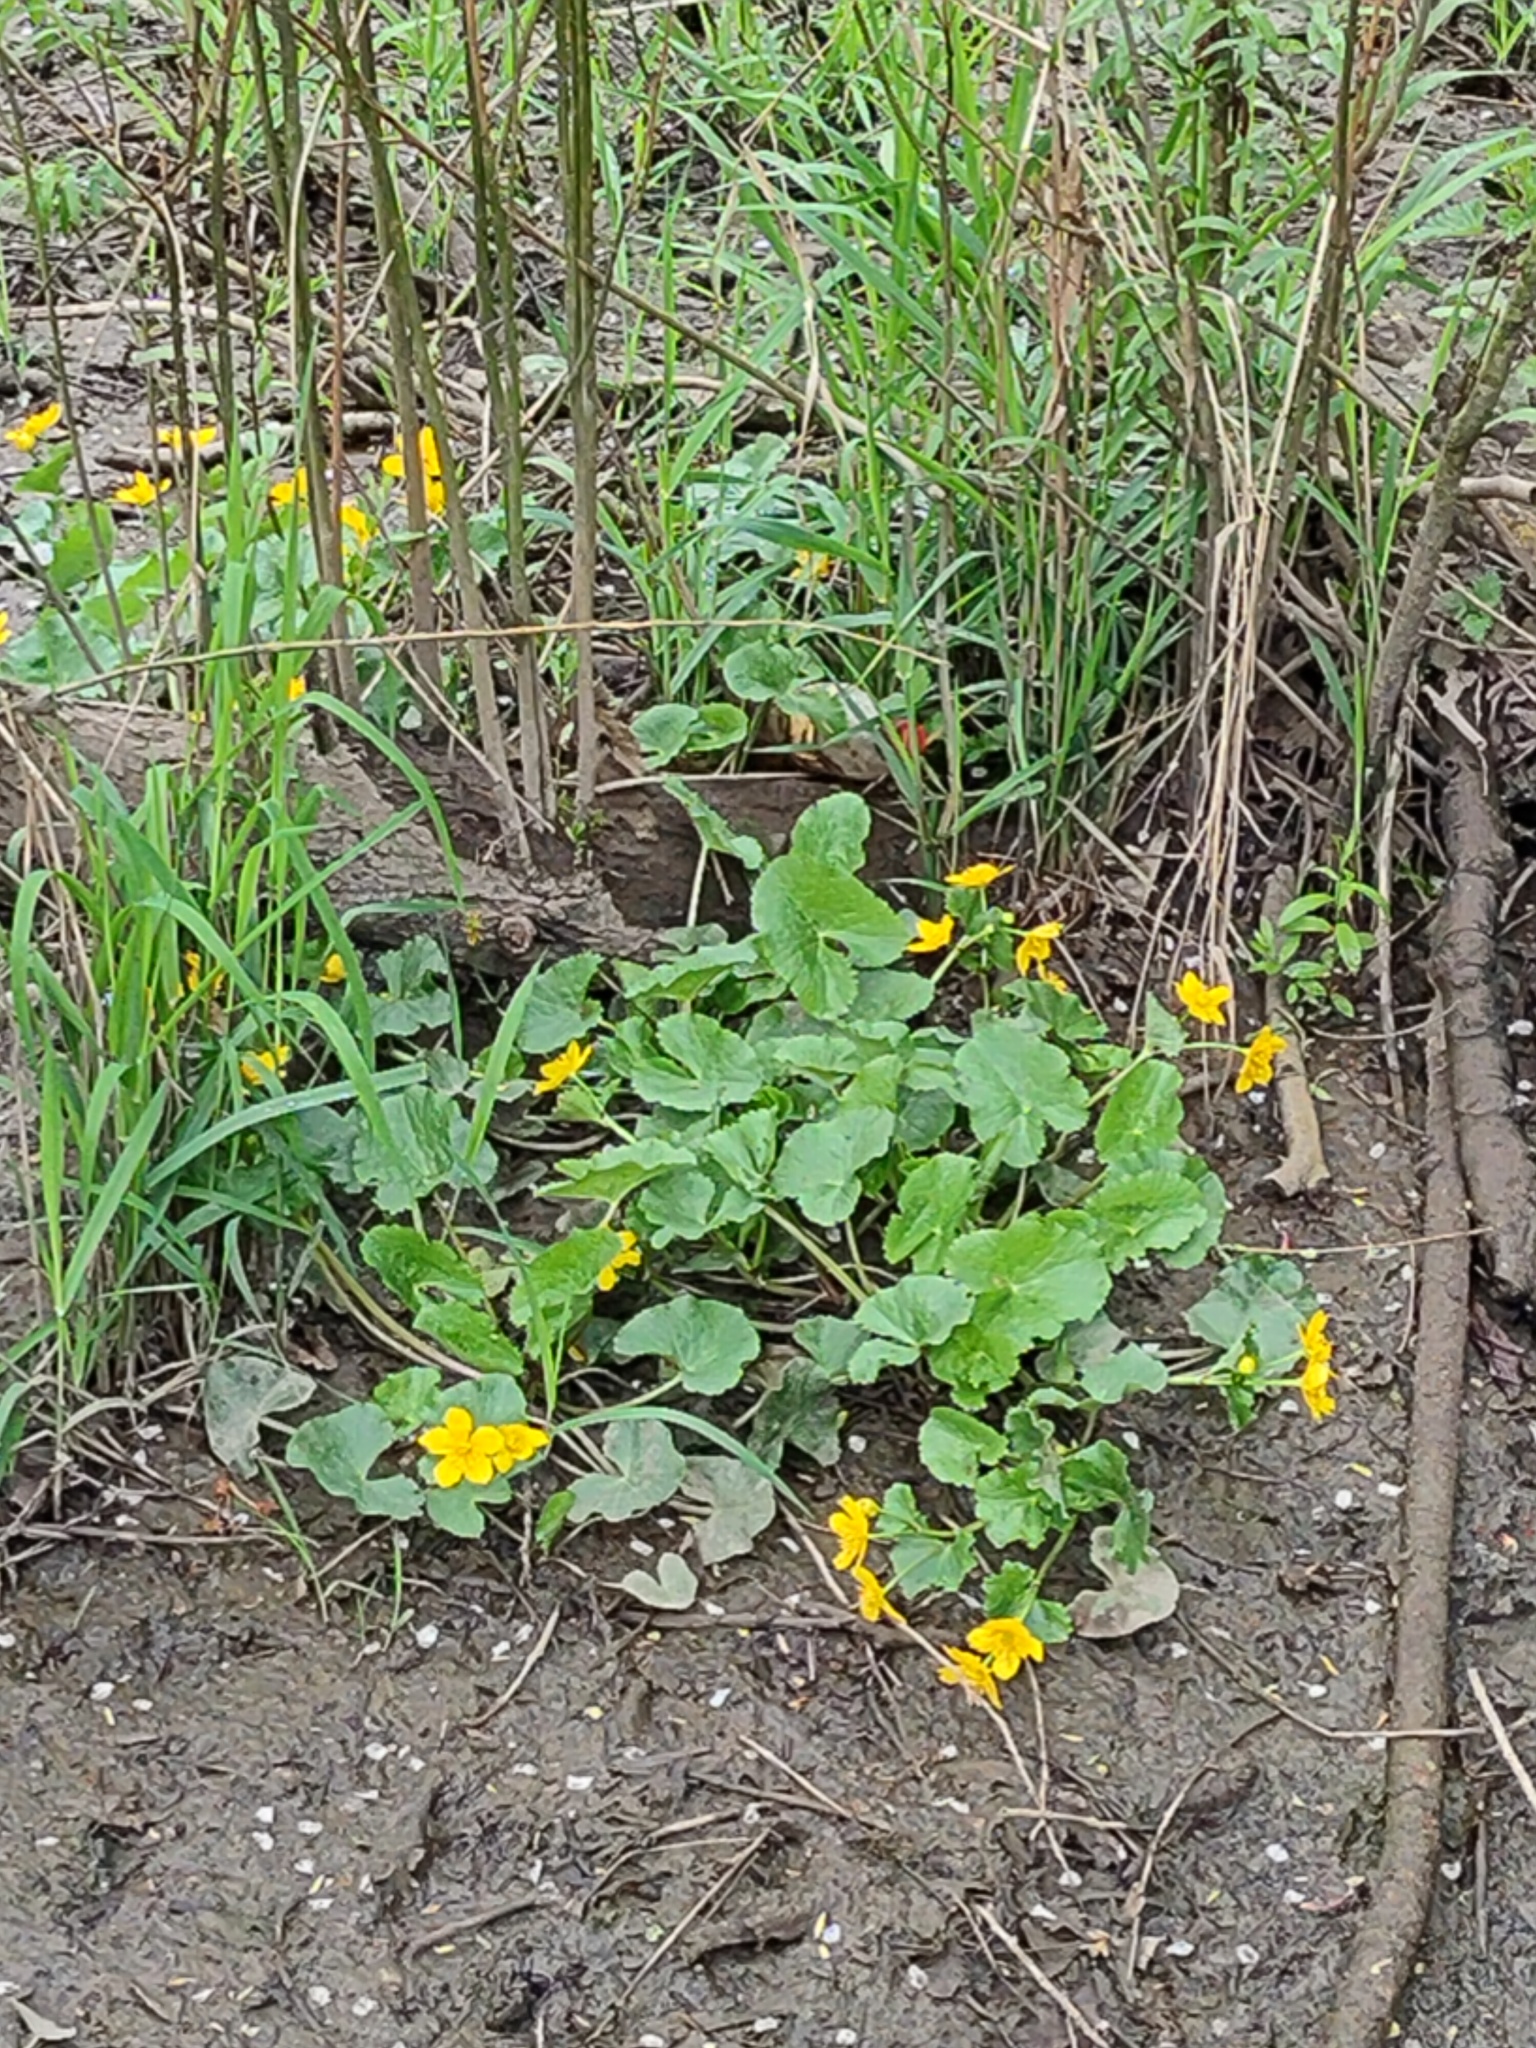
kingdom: Plantae
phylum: Tracheophyta
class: Magnoliopsida
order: Ranunculales
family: Ranunculaceae
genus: Caltha
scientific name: Caltha palustris
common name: Marsh marigold
